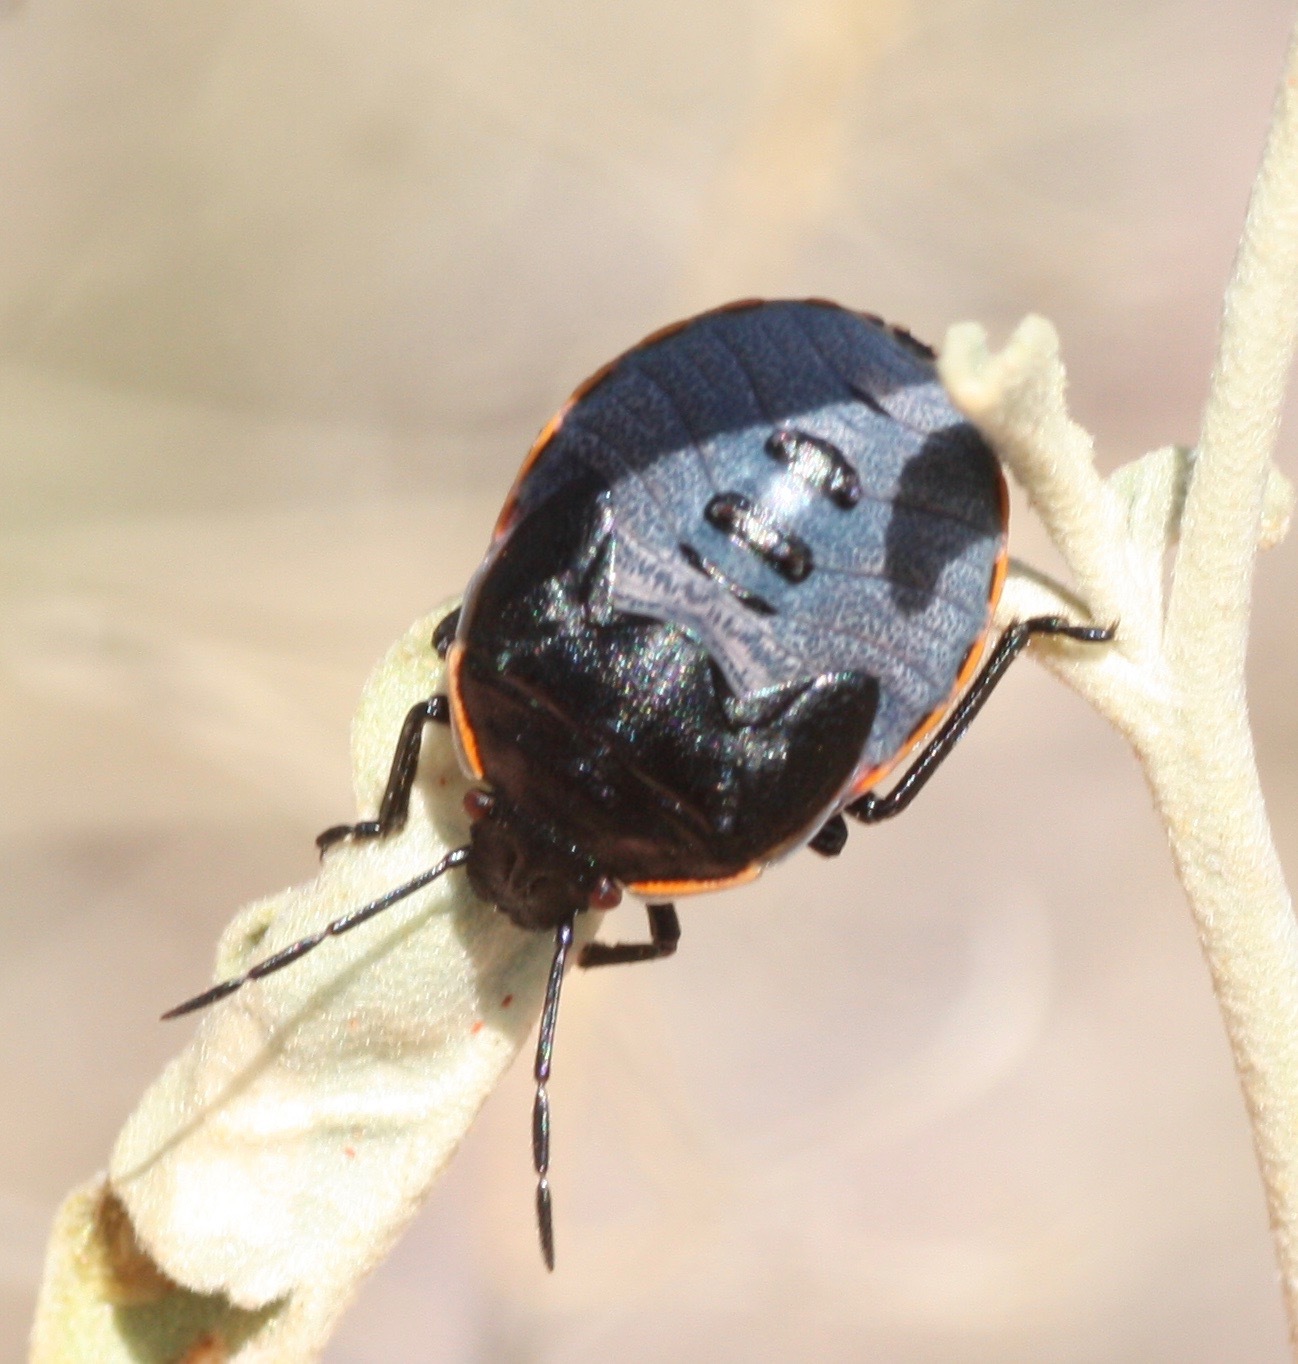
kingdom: Animalia
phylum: Arthropoda
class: Insecta
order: Hemiptera
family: Pentatomidae
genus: Chlorochroa
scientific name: Chlorochroa ligata
